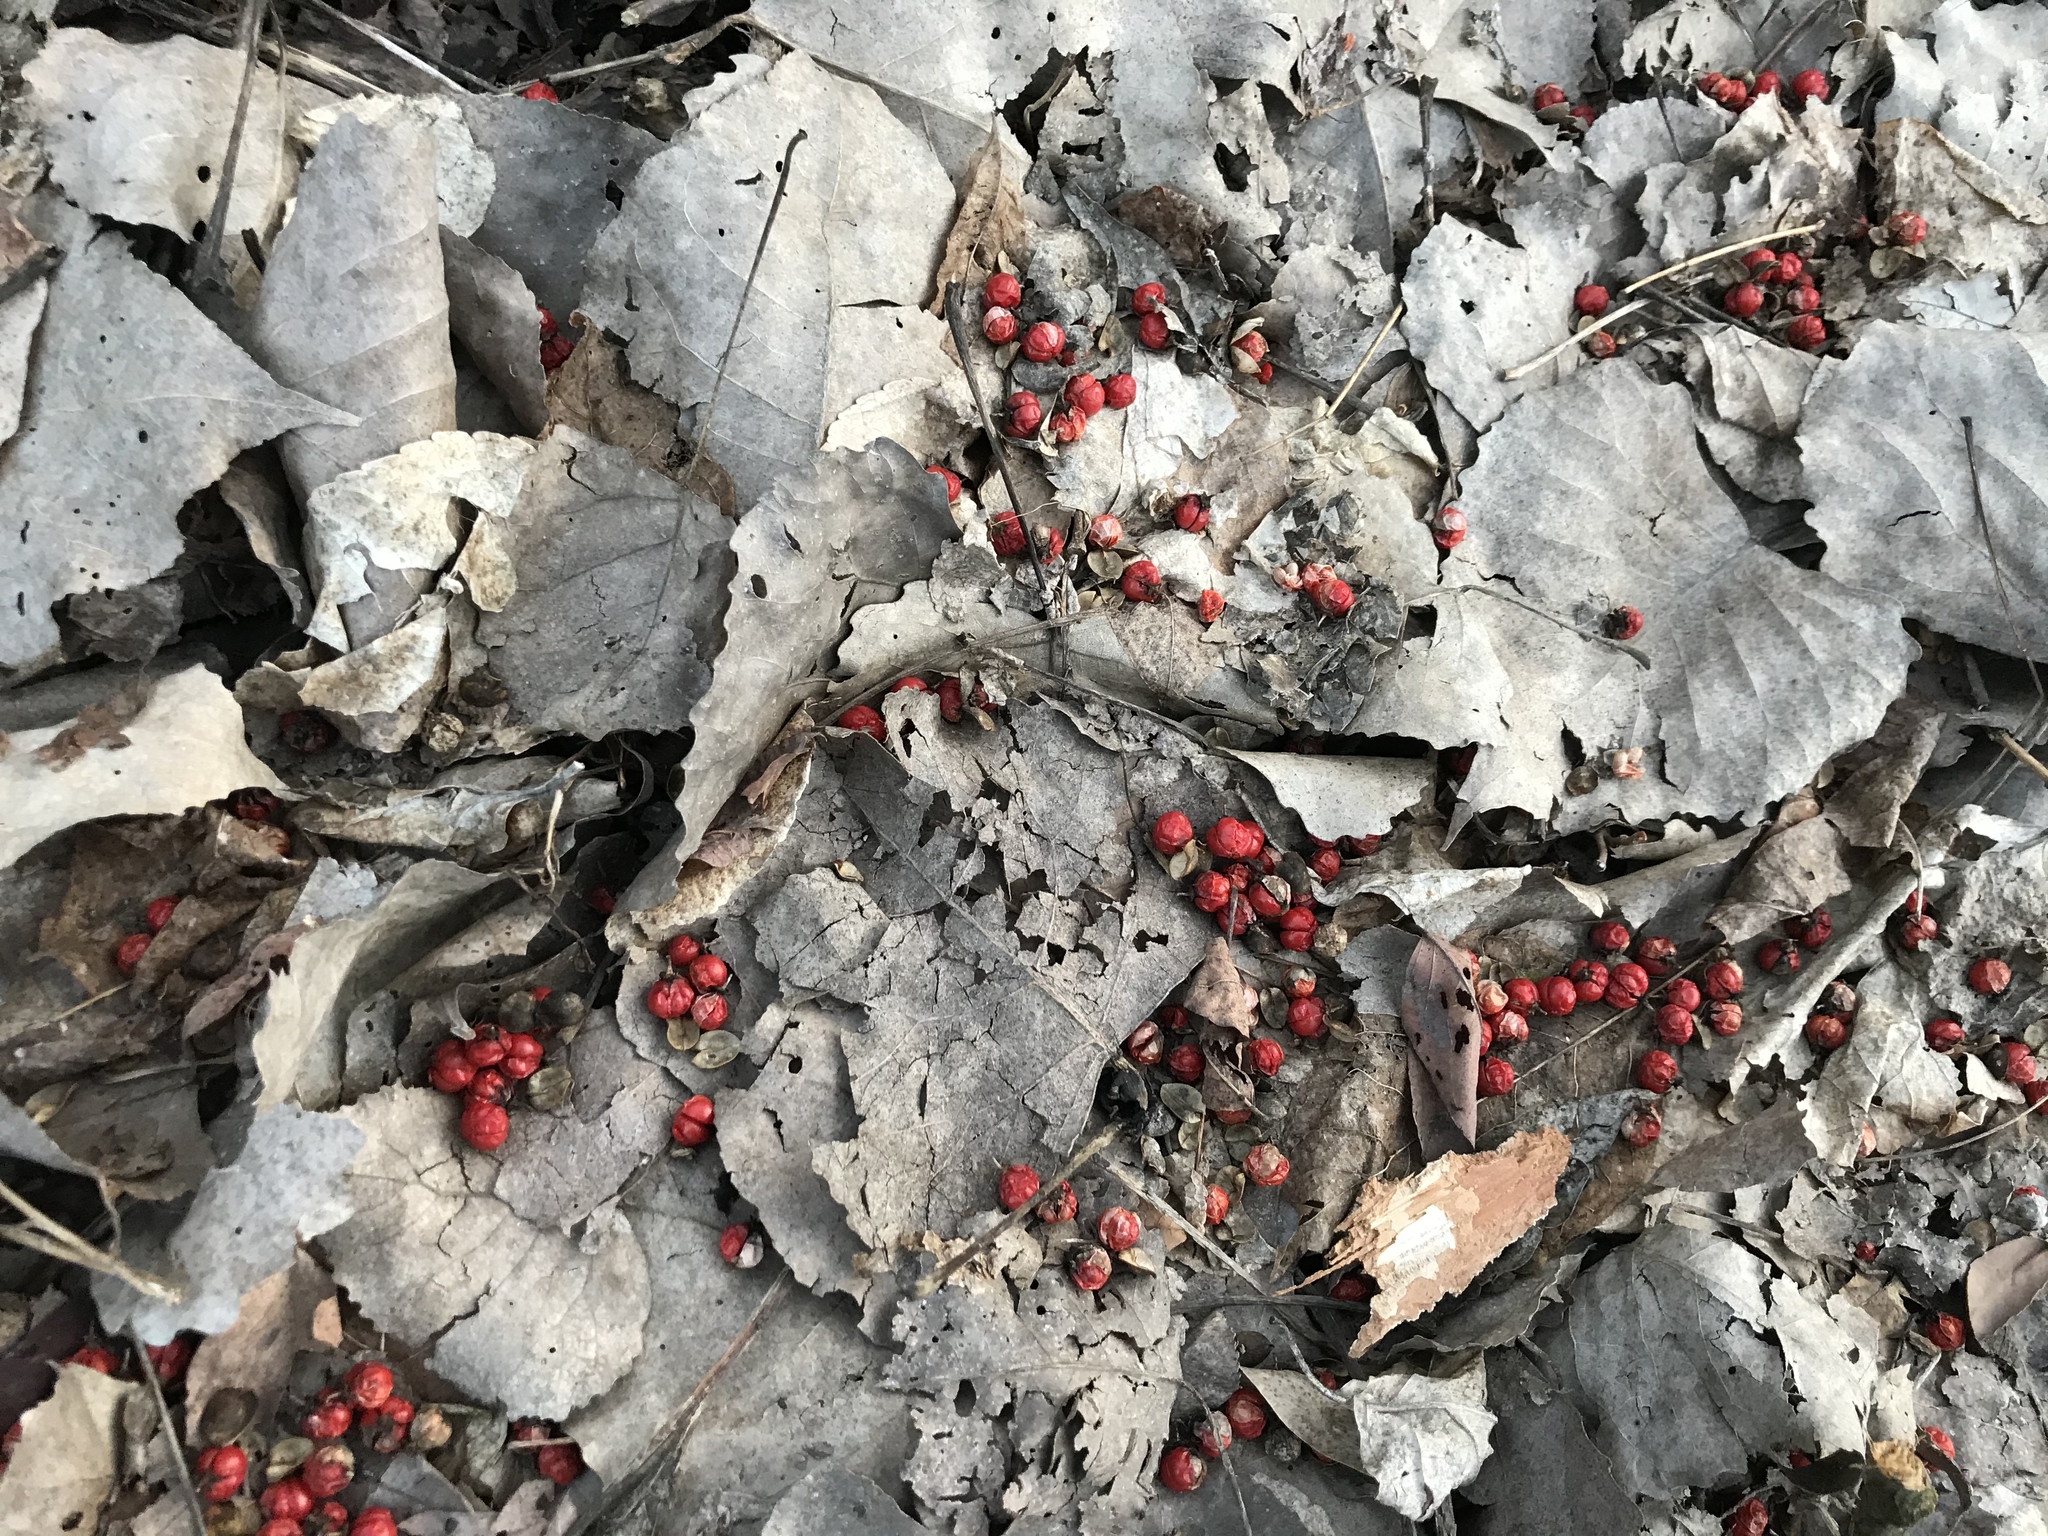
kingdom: Plantae
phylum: Tracheophyta
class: Magnoliopsida
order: Celastrales
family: Celastraceae
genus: Celastrus
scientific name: Celastrus orbiculatus
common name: Oriental bittersweet
